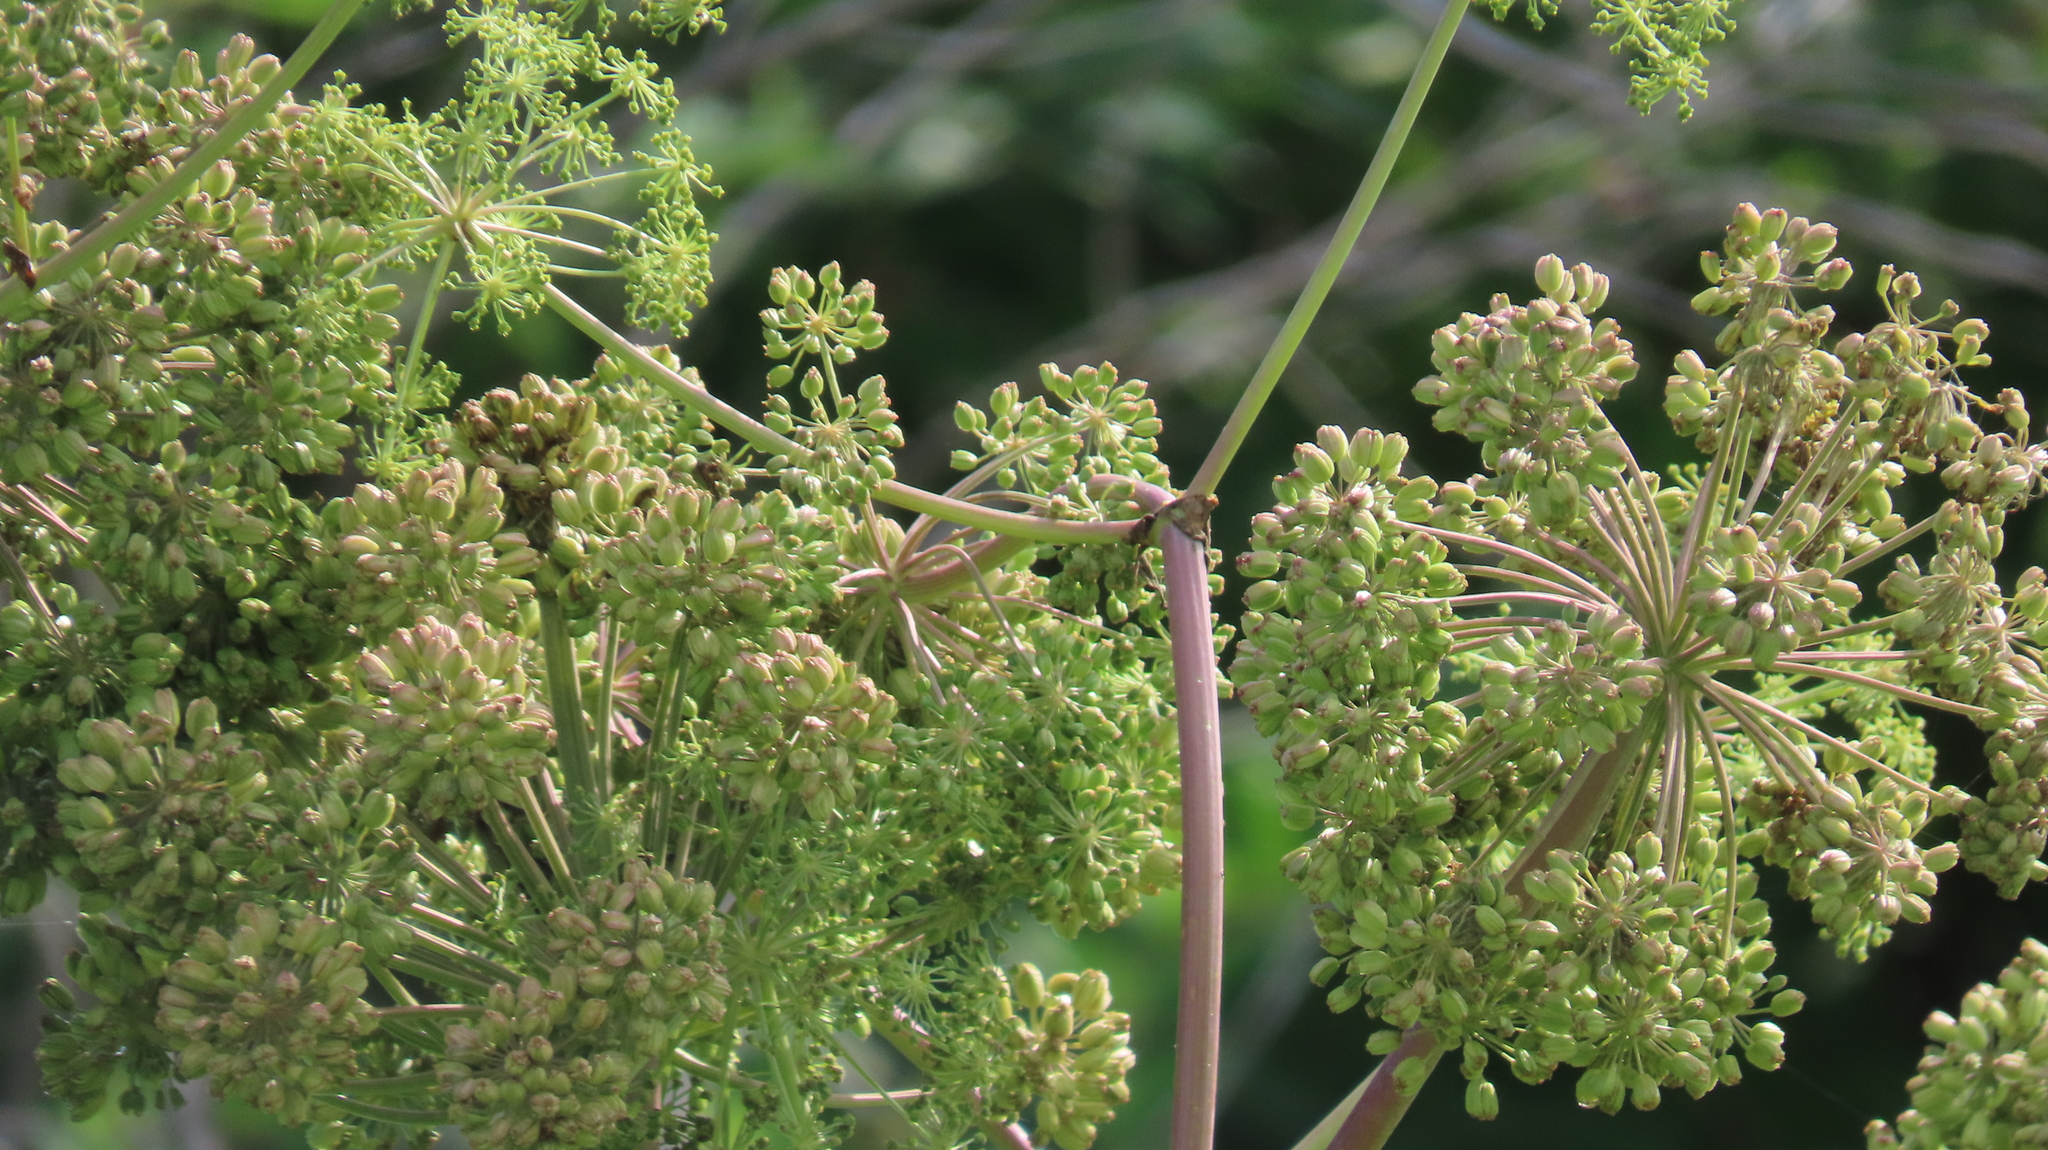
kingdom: Plantae
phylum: Tracheophyta
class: Magnoliopsida
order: Apiales
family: Apiaceae
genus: Angelica
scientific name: Angelica atropurpurea
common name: Great angelica
